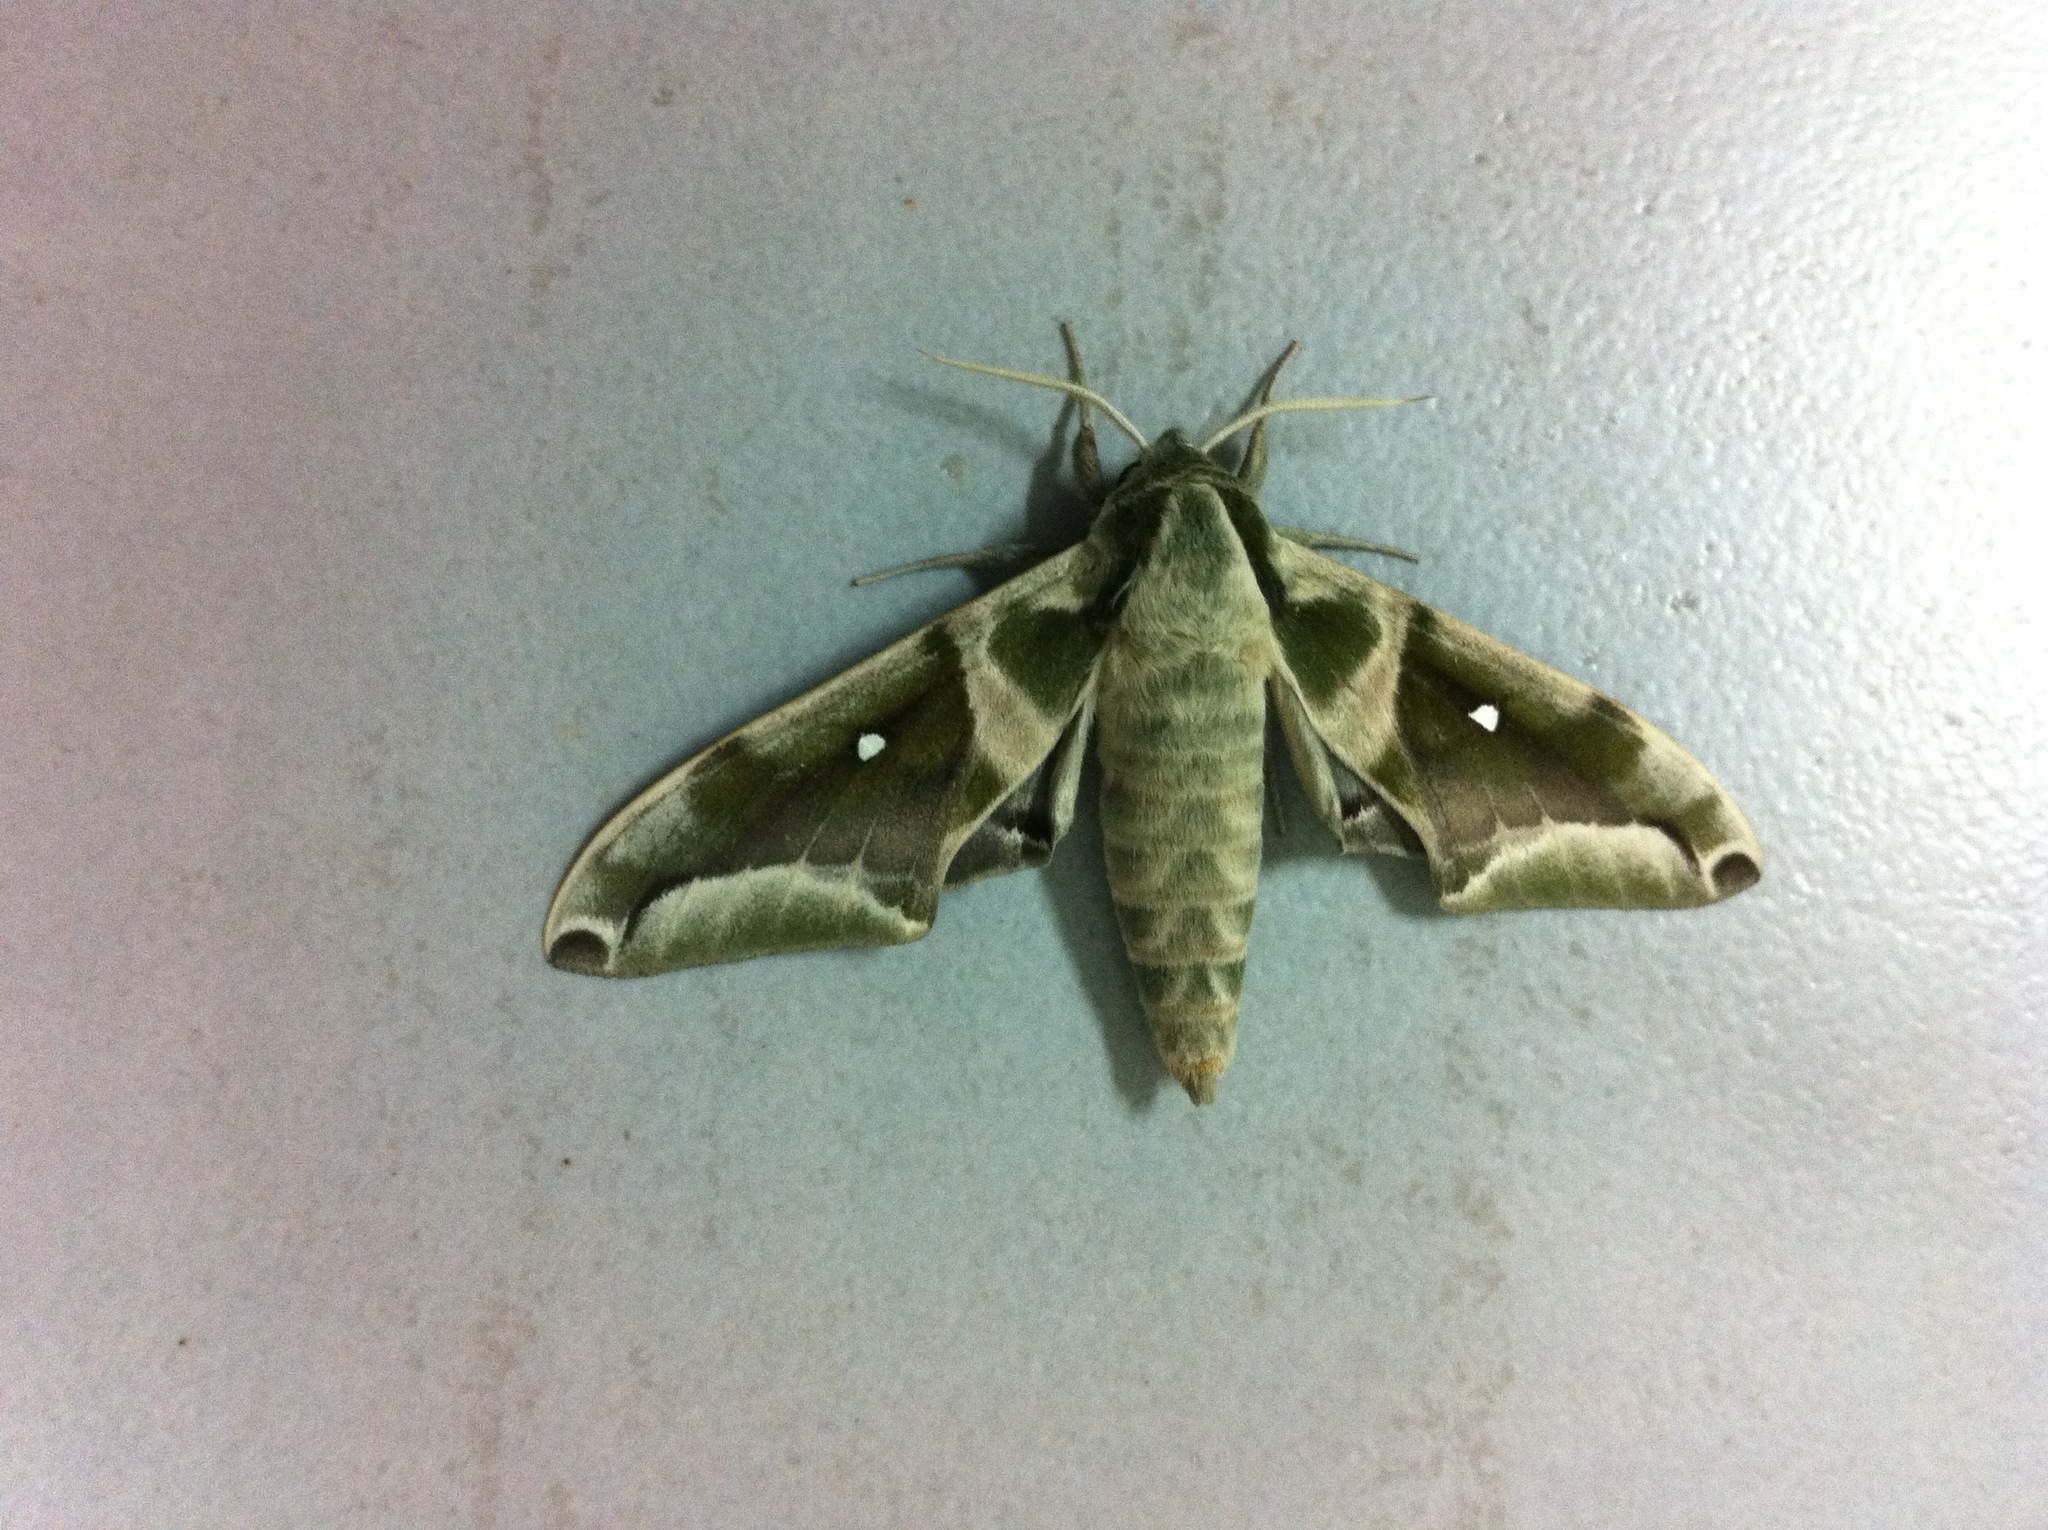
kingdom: Animalia
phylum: Arthropoda
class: Insecta
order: Lepidoptera
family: Sphingidae
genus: Parum
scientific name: Parum colligata
